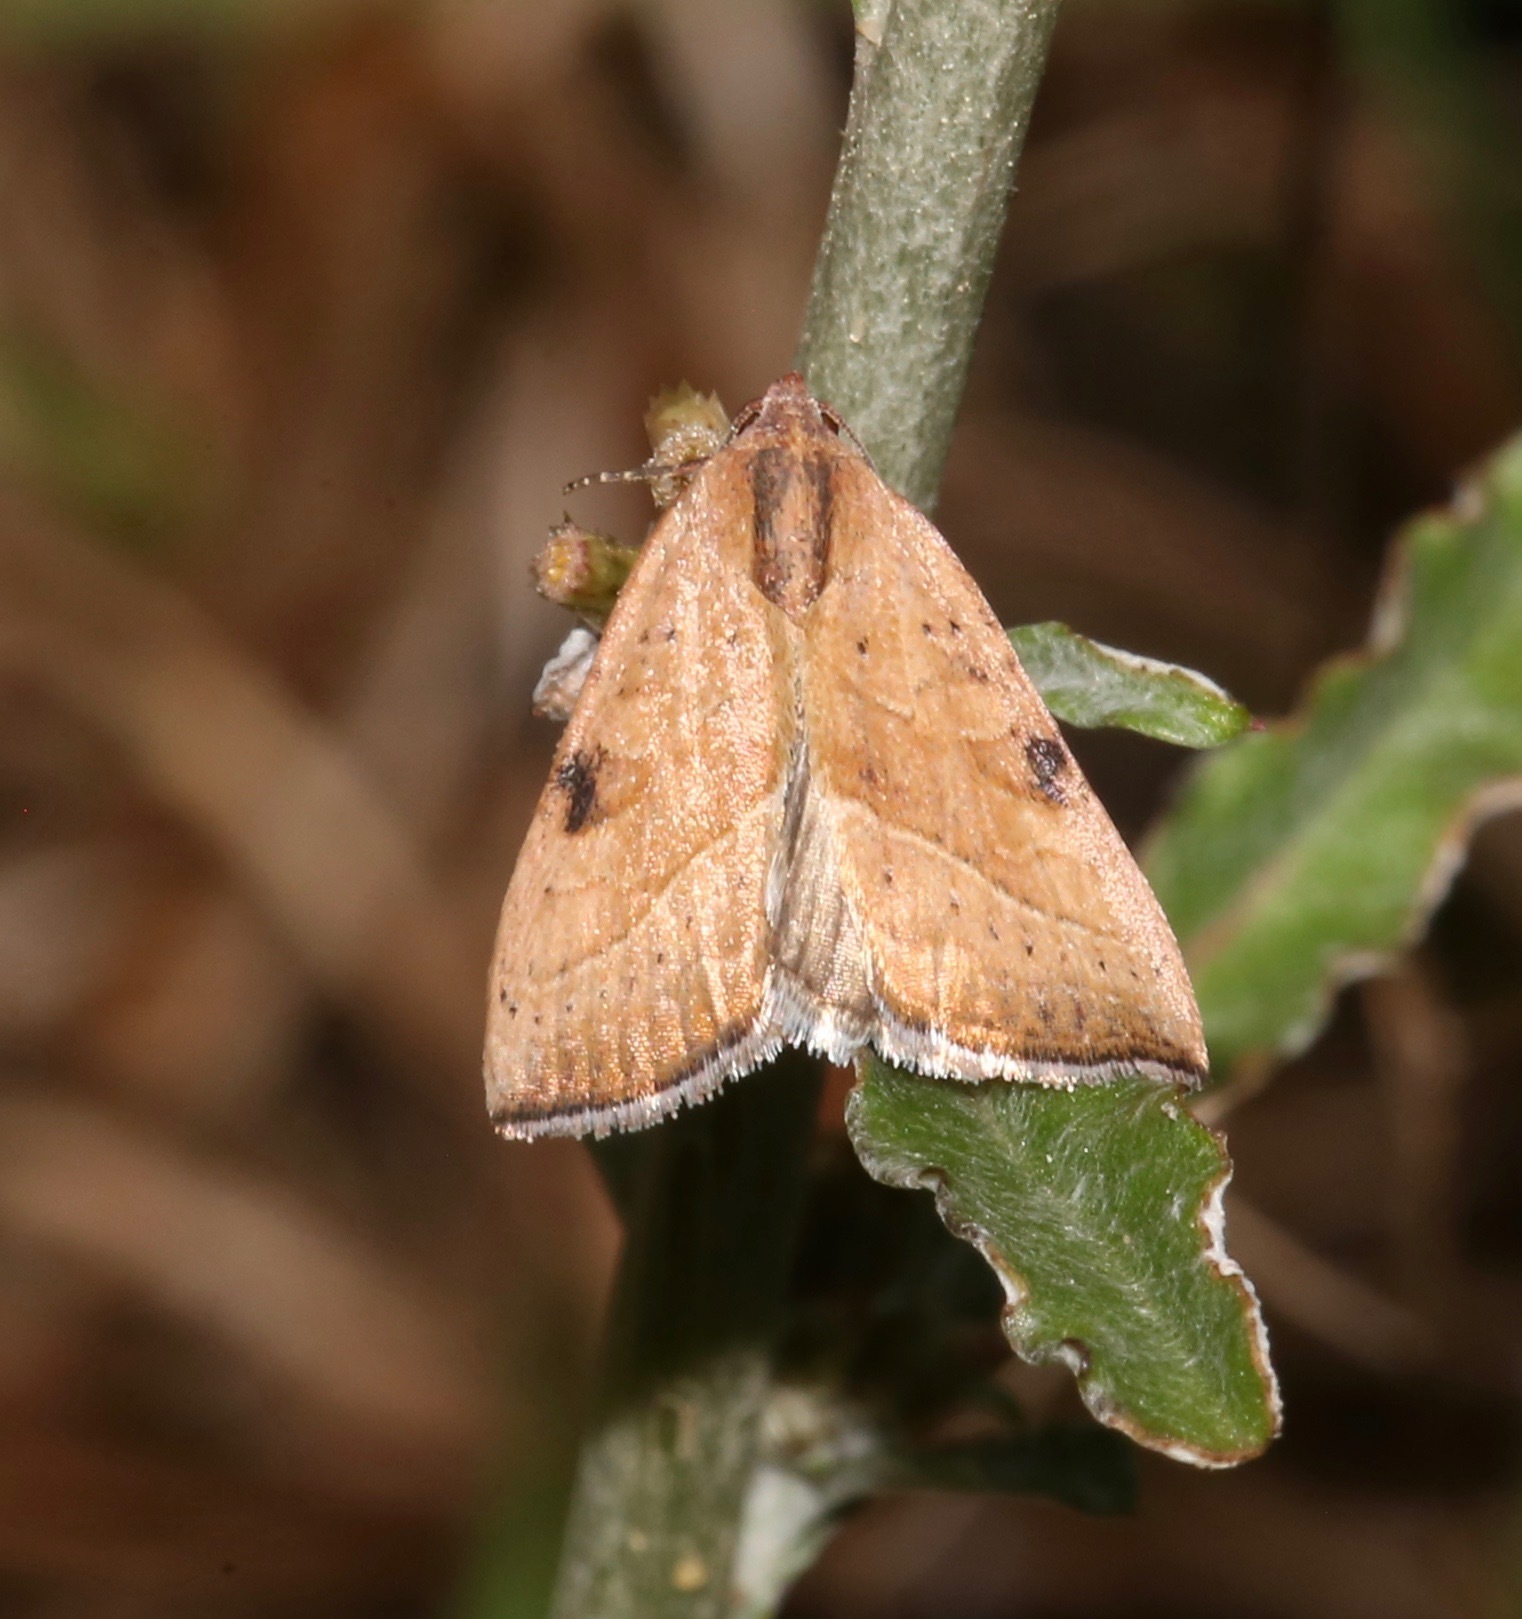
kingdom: Animalia
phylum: Arthropoda
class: Insecta
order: Lepidoptera
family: Noctuidae
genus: Galgula
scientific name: Galgula partita
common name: Wedgeling
